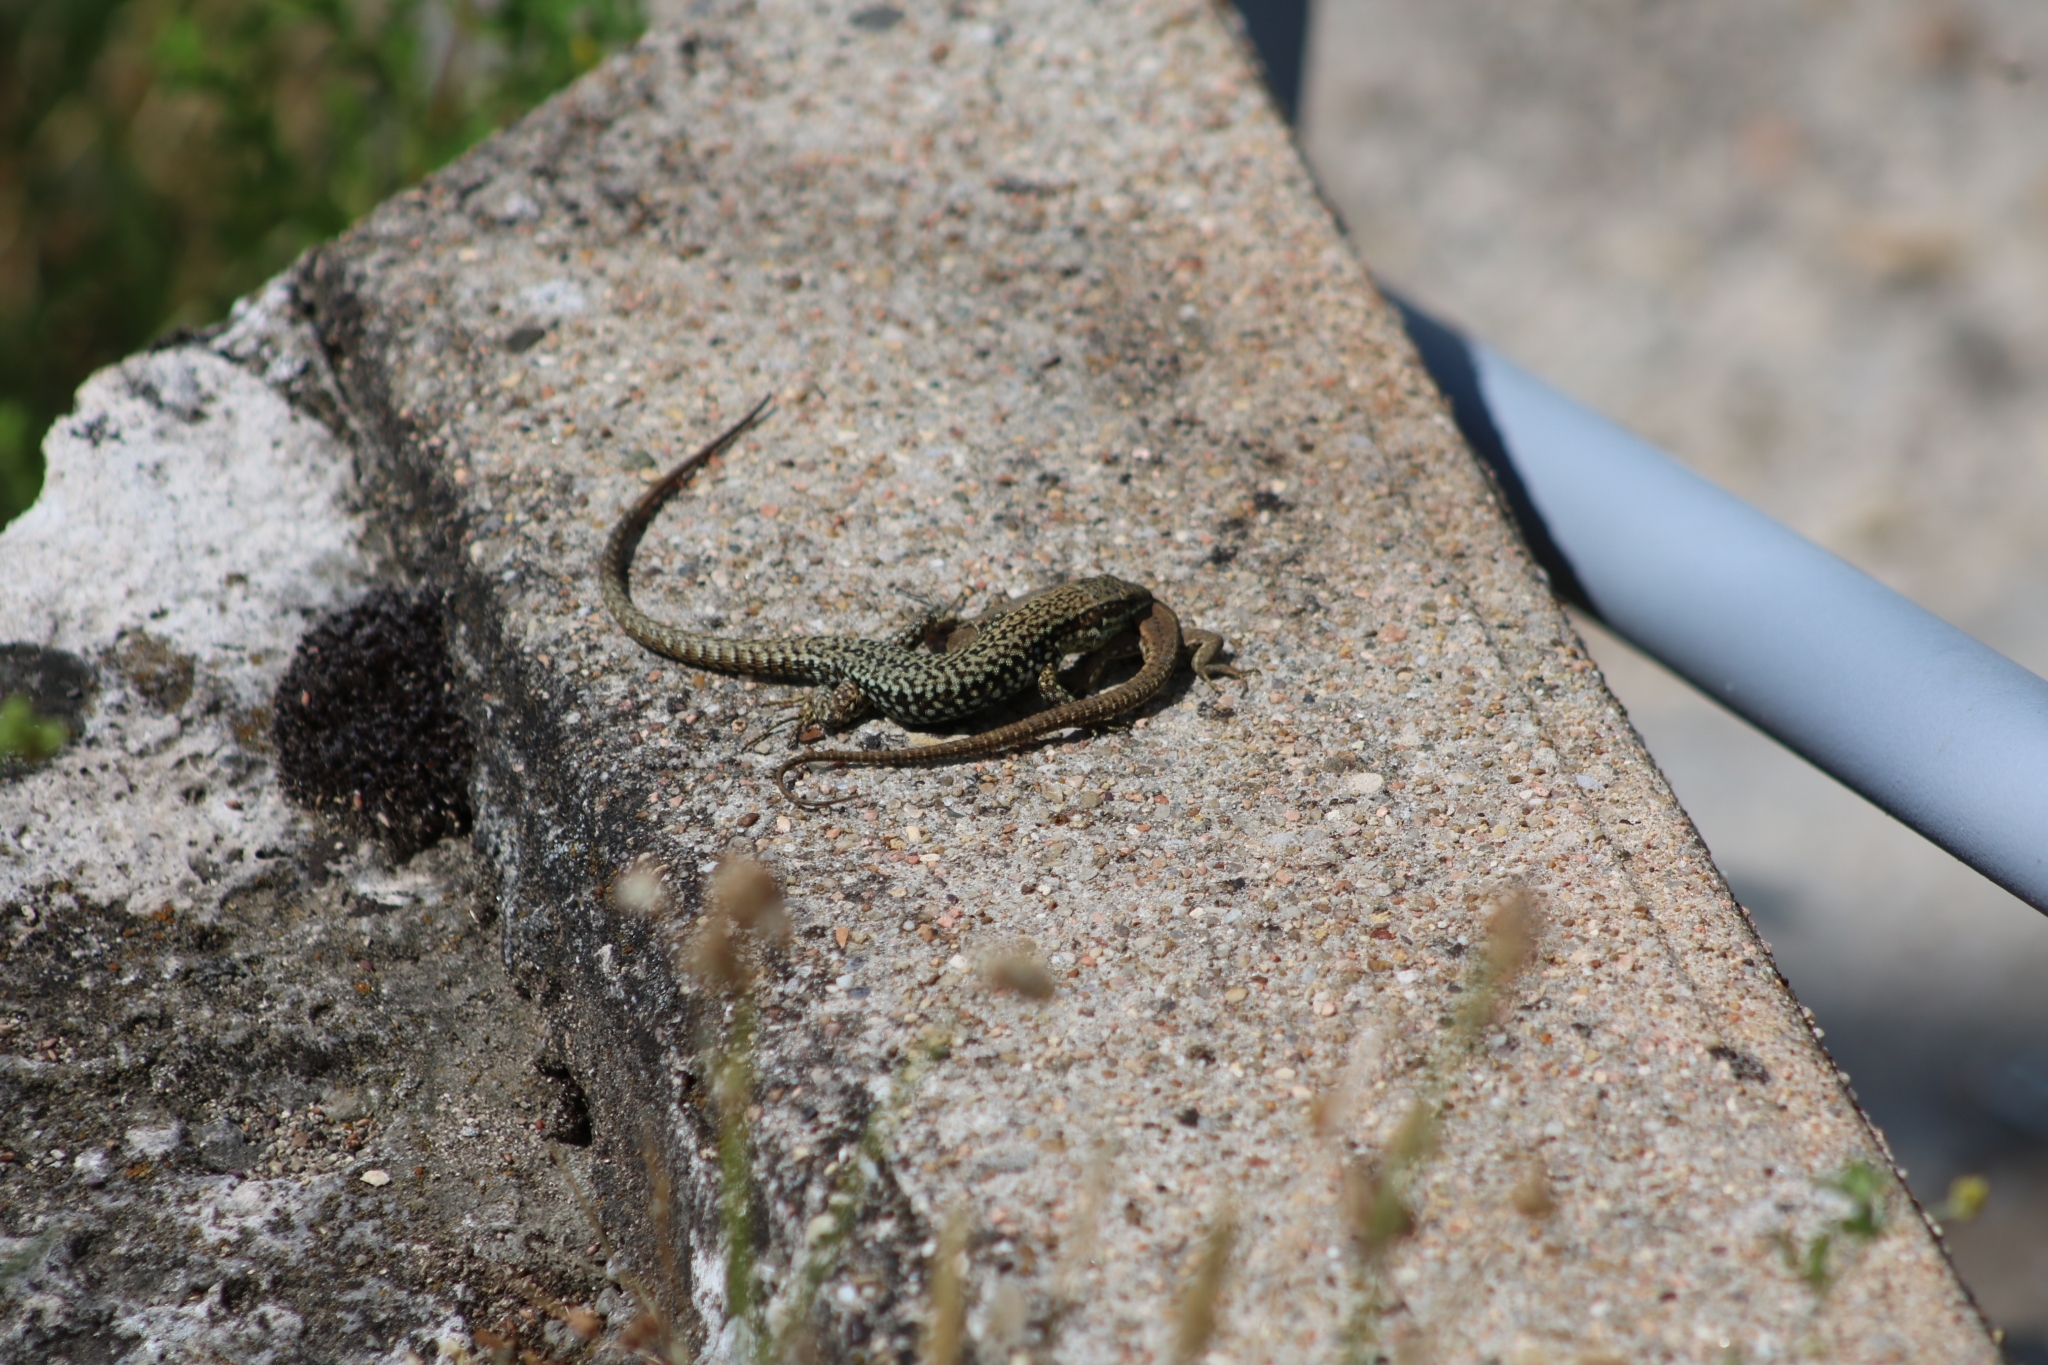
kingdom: Animalia
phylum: Chordata
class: Squamata
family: Lacertidae
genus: Podarcis
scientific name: Podarcis muralis
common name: Common wall lizard
